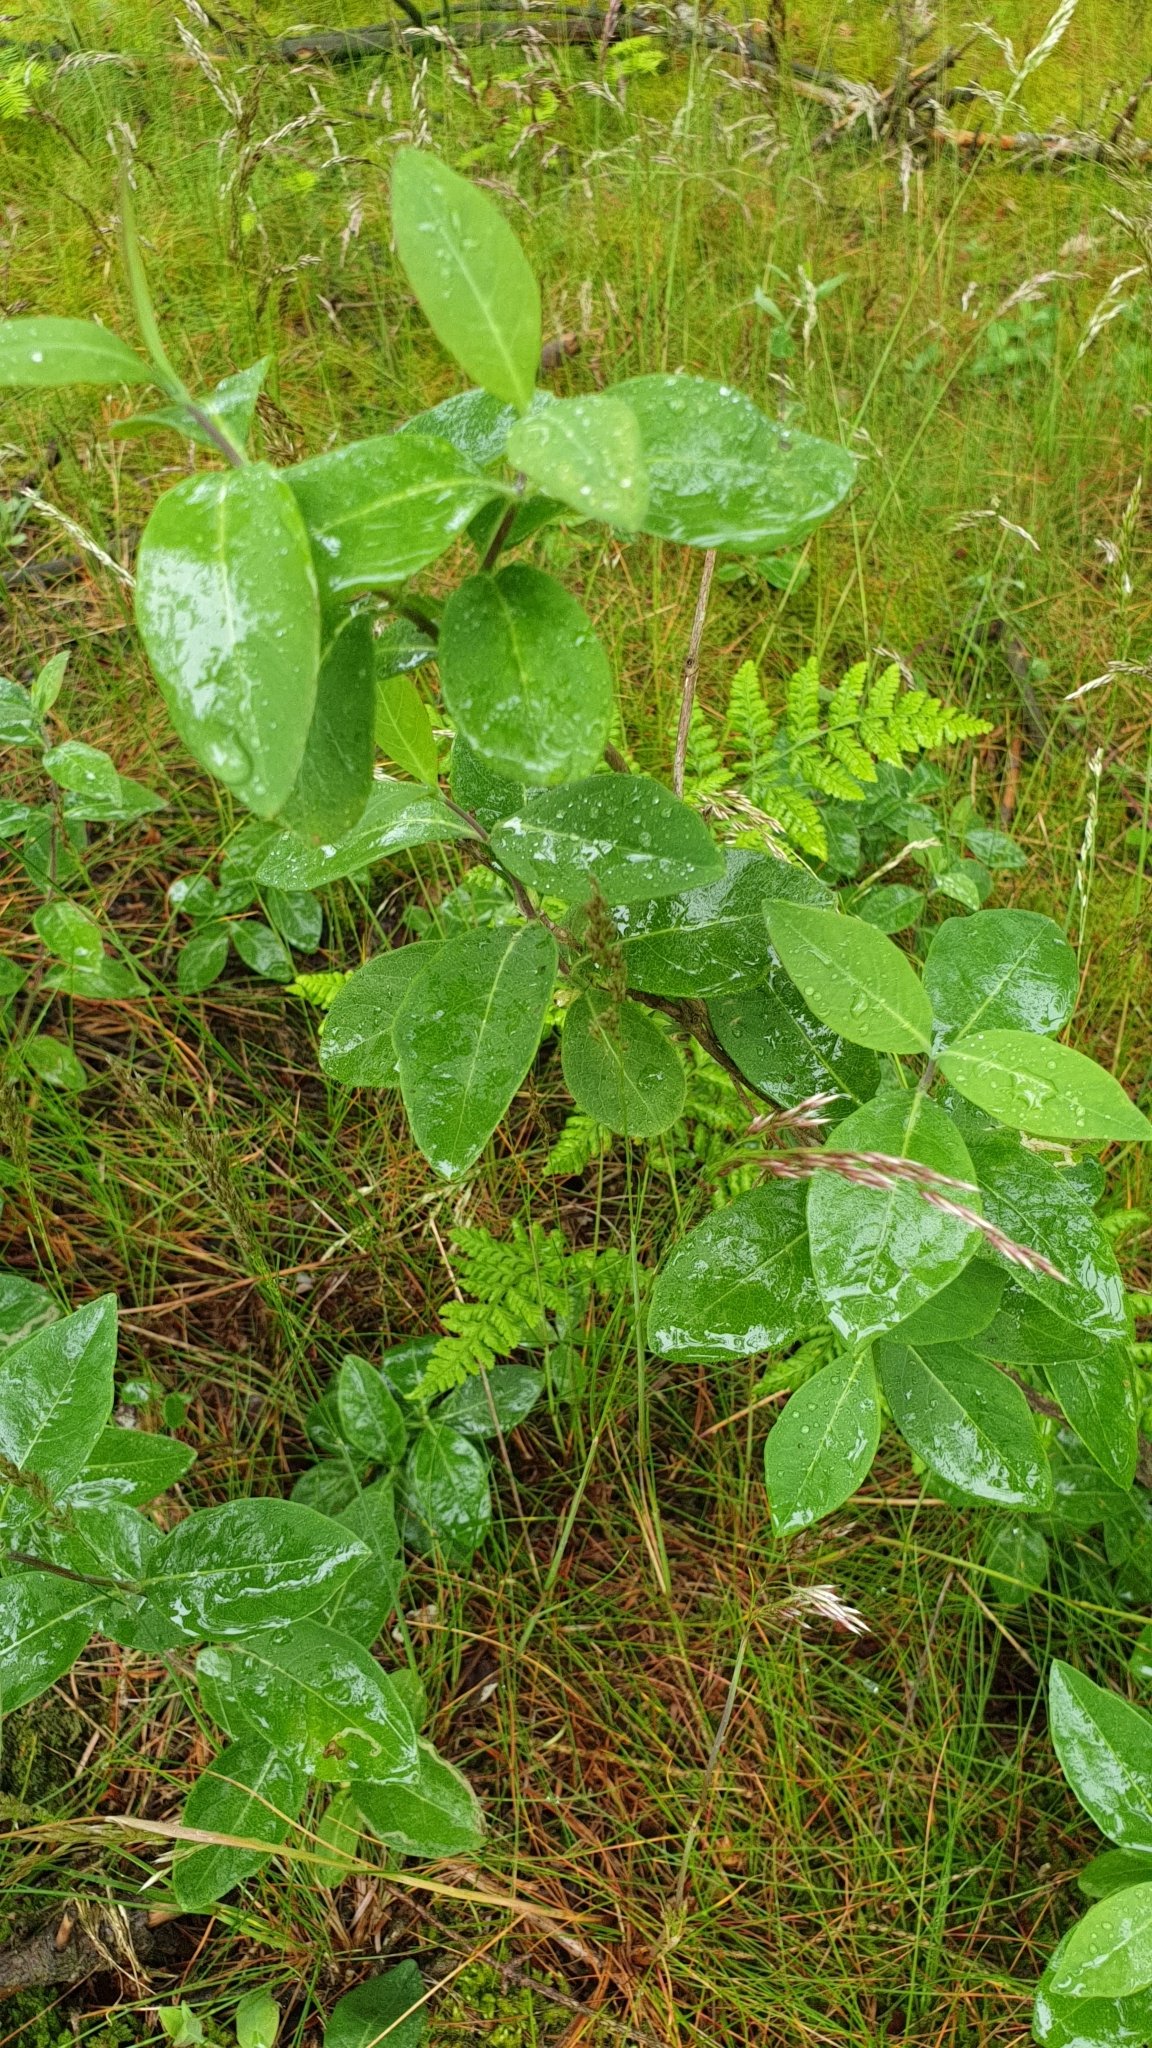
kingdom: Plantae
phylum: Tracheophyta
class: Magnoliopsida
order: Dipsacales
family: Caprifoliaceae
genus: Lonicera
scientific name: Lonicera periclymenum
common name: European honeysuckle
